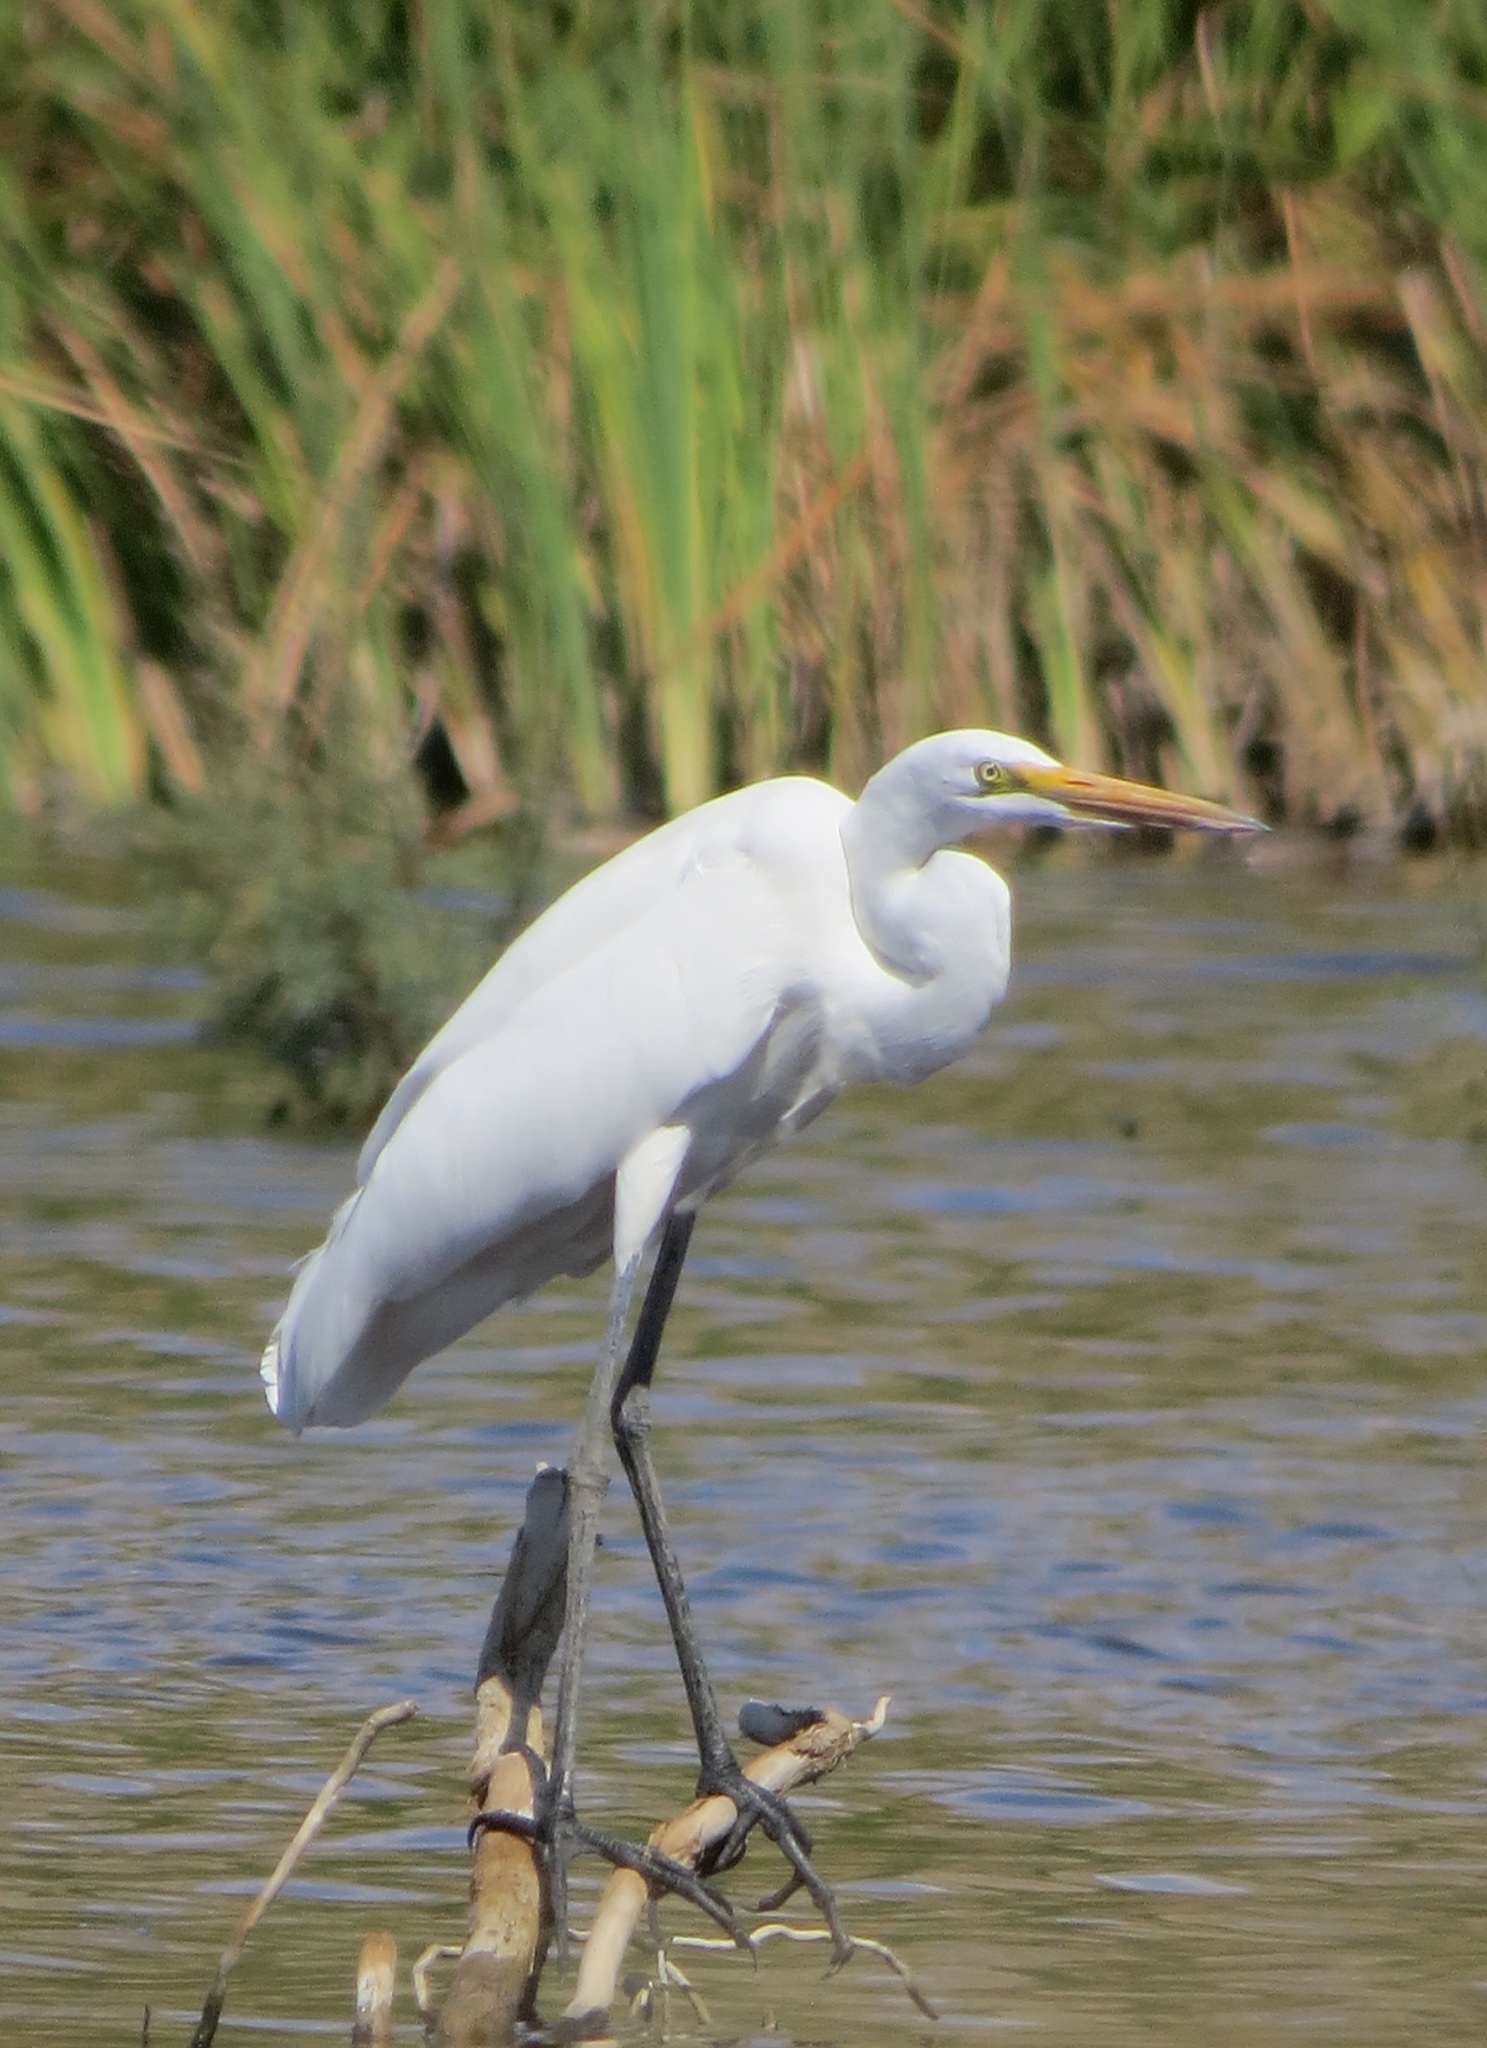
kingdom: Animalia
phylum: Chordata
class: Aves
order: Pelecaniformes
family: Ardeidae
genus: Ardea
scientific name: Ardea alba
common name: Great egret
